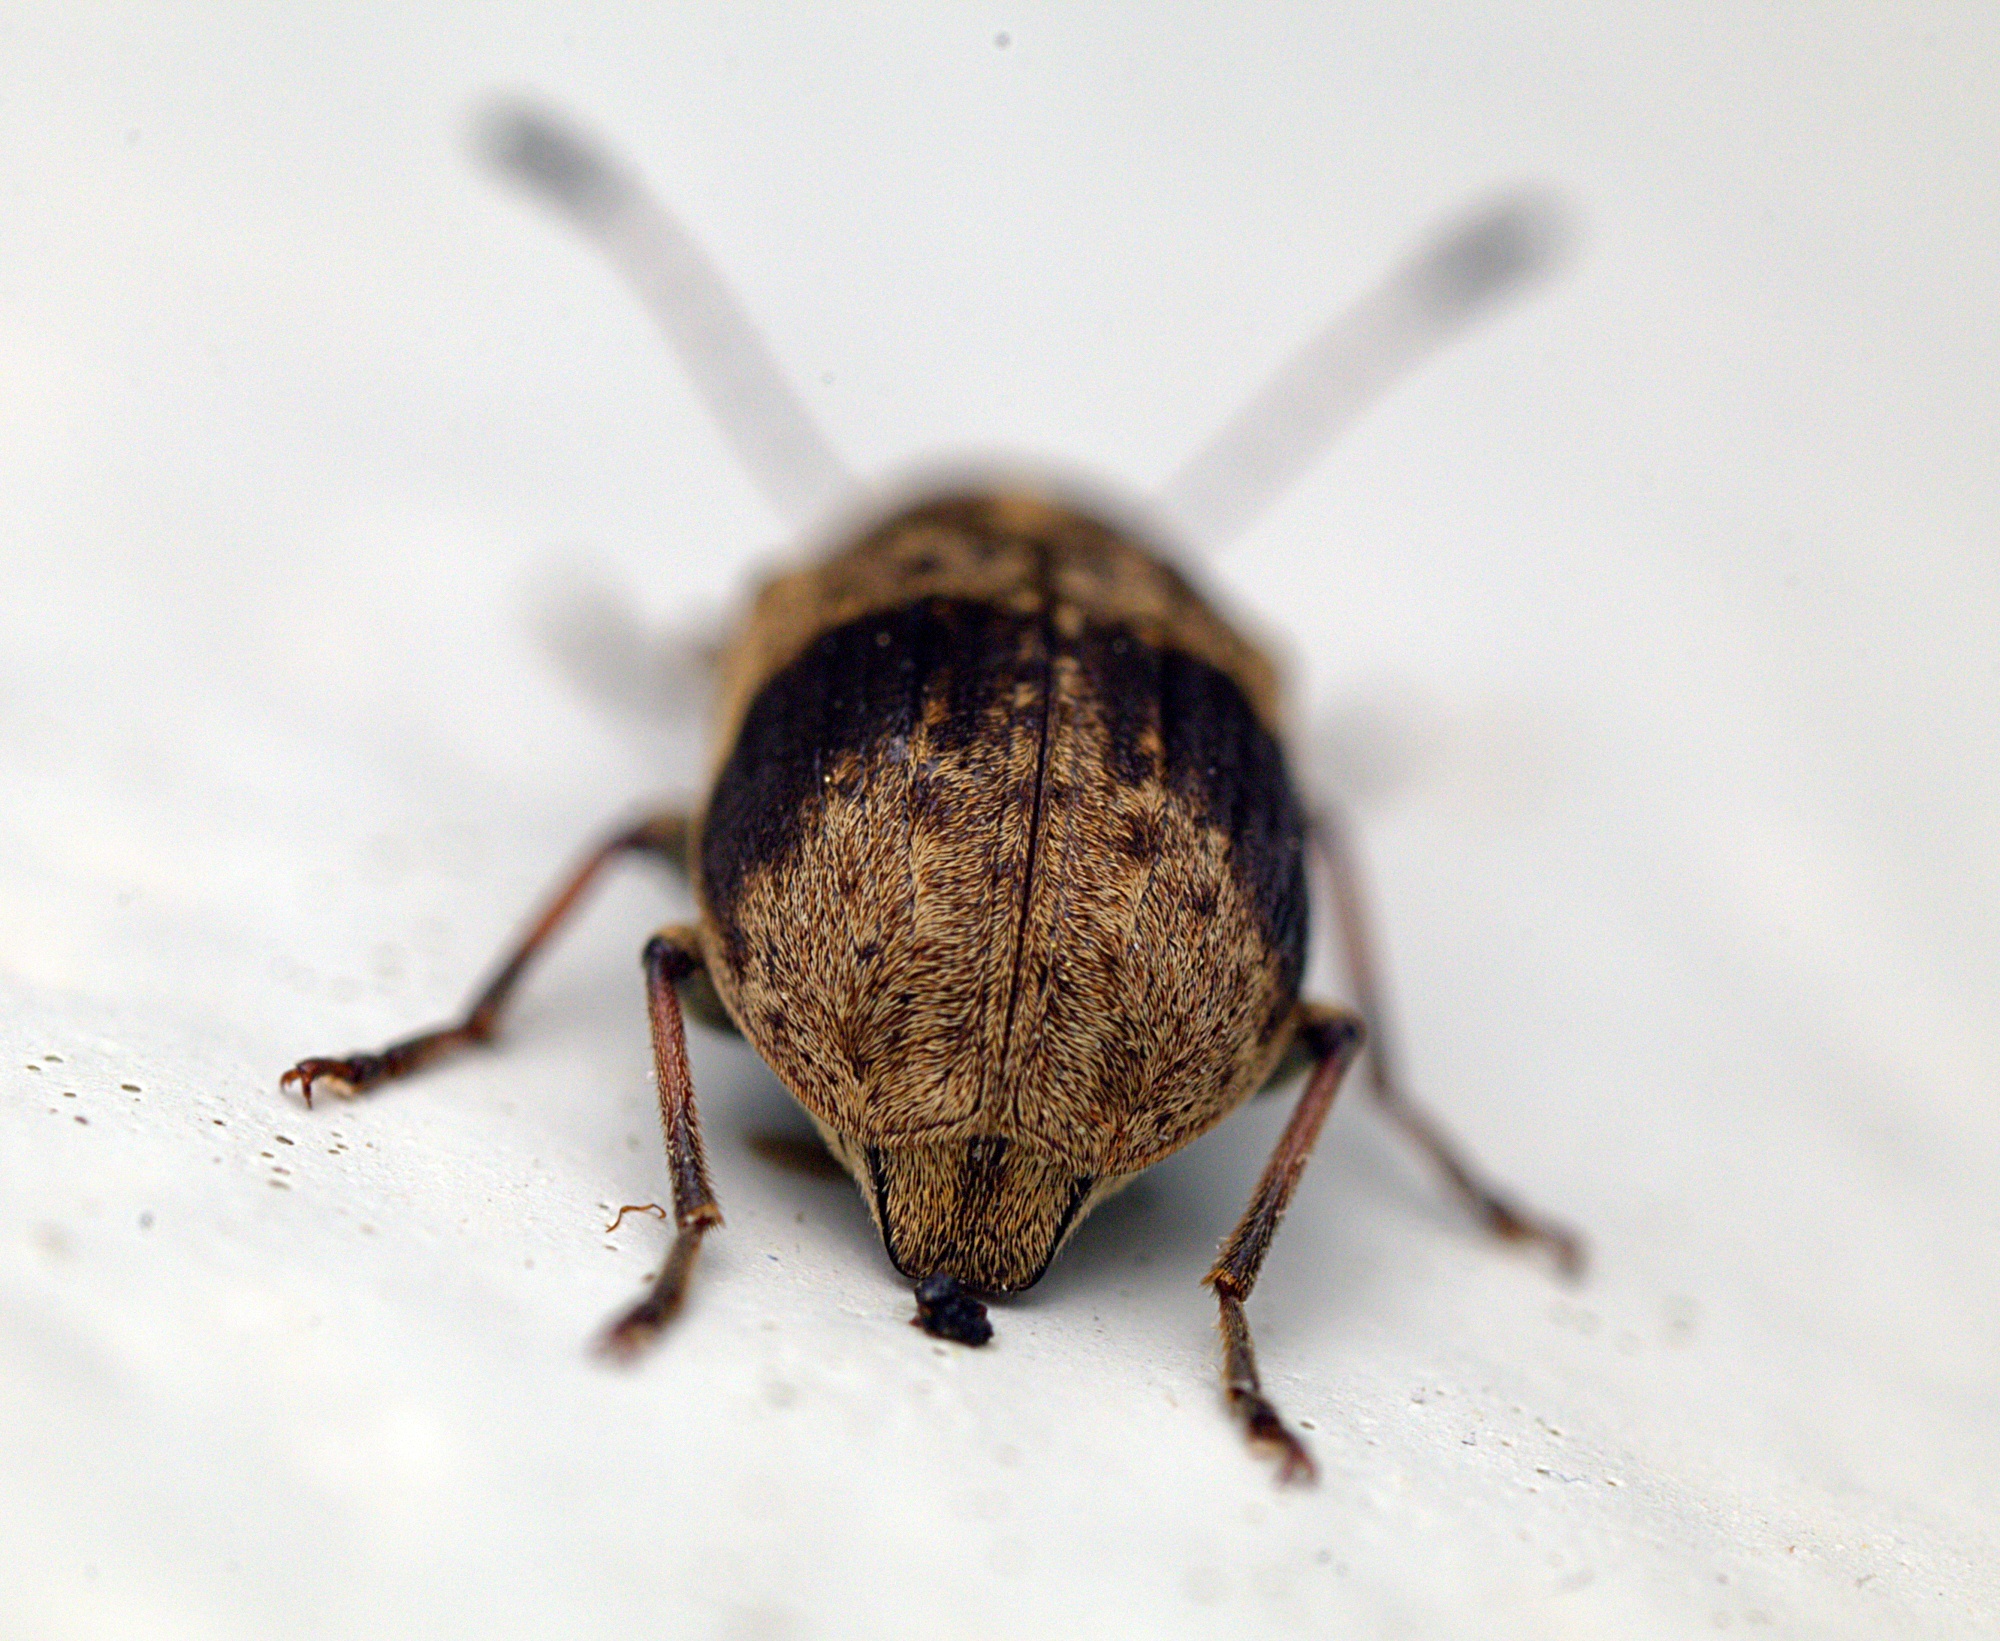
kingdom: Animalia
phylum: Arthropoda
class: Insecta
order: Coleoptera
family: Anthribidae
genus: Cacephatus
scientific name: Cacephatus huttoni
